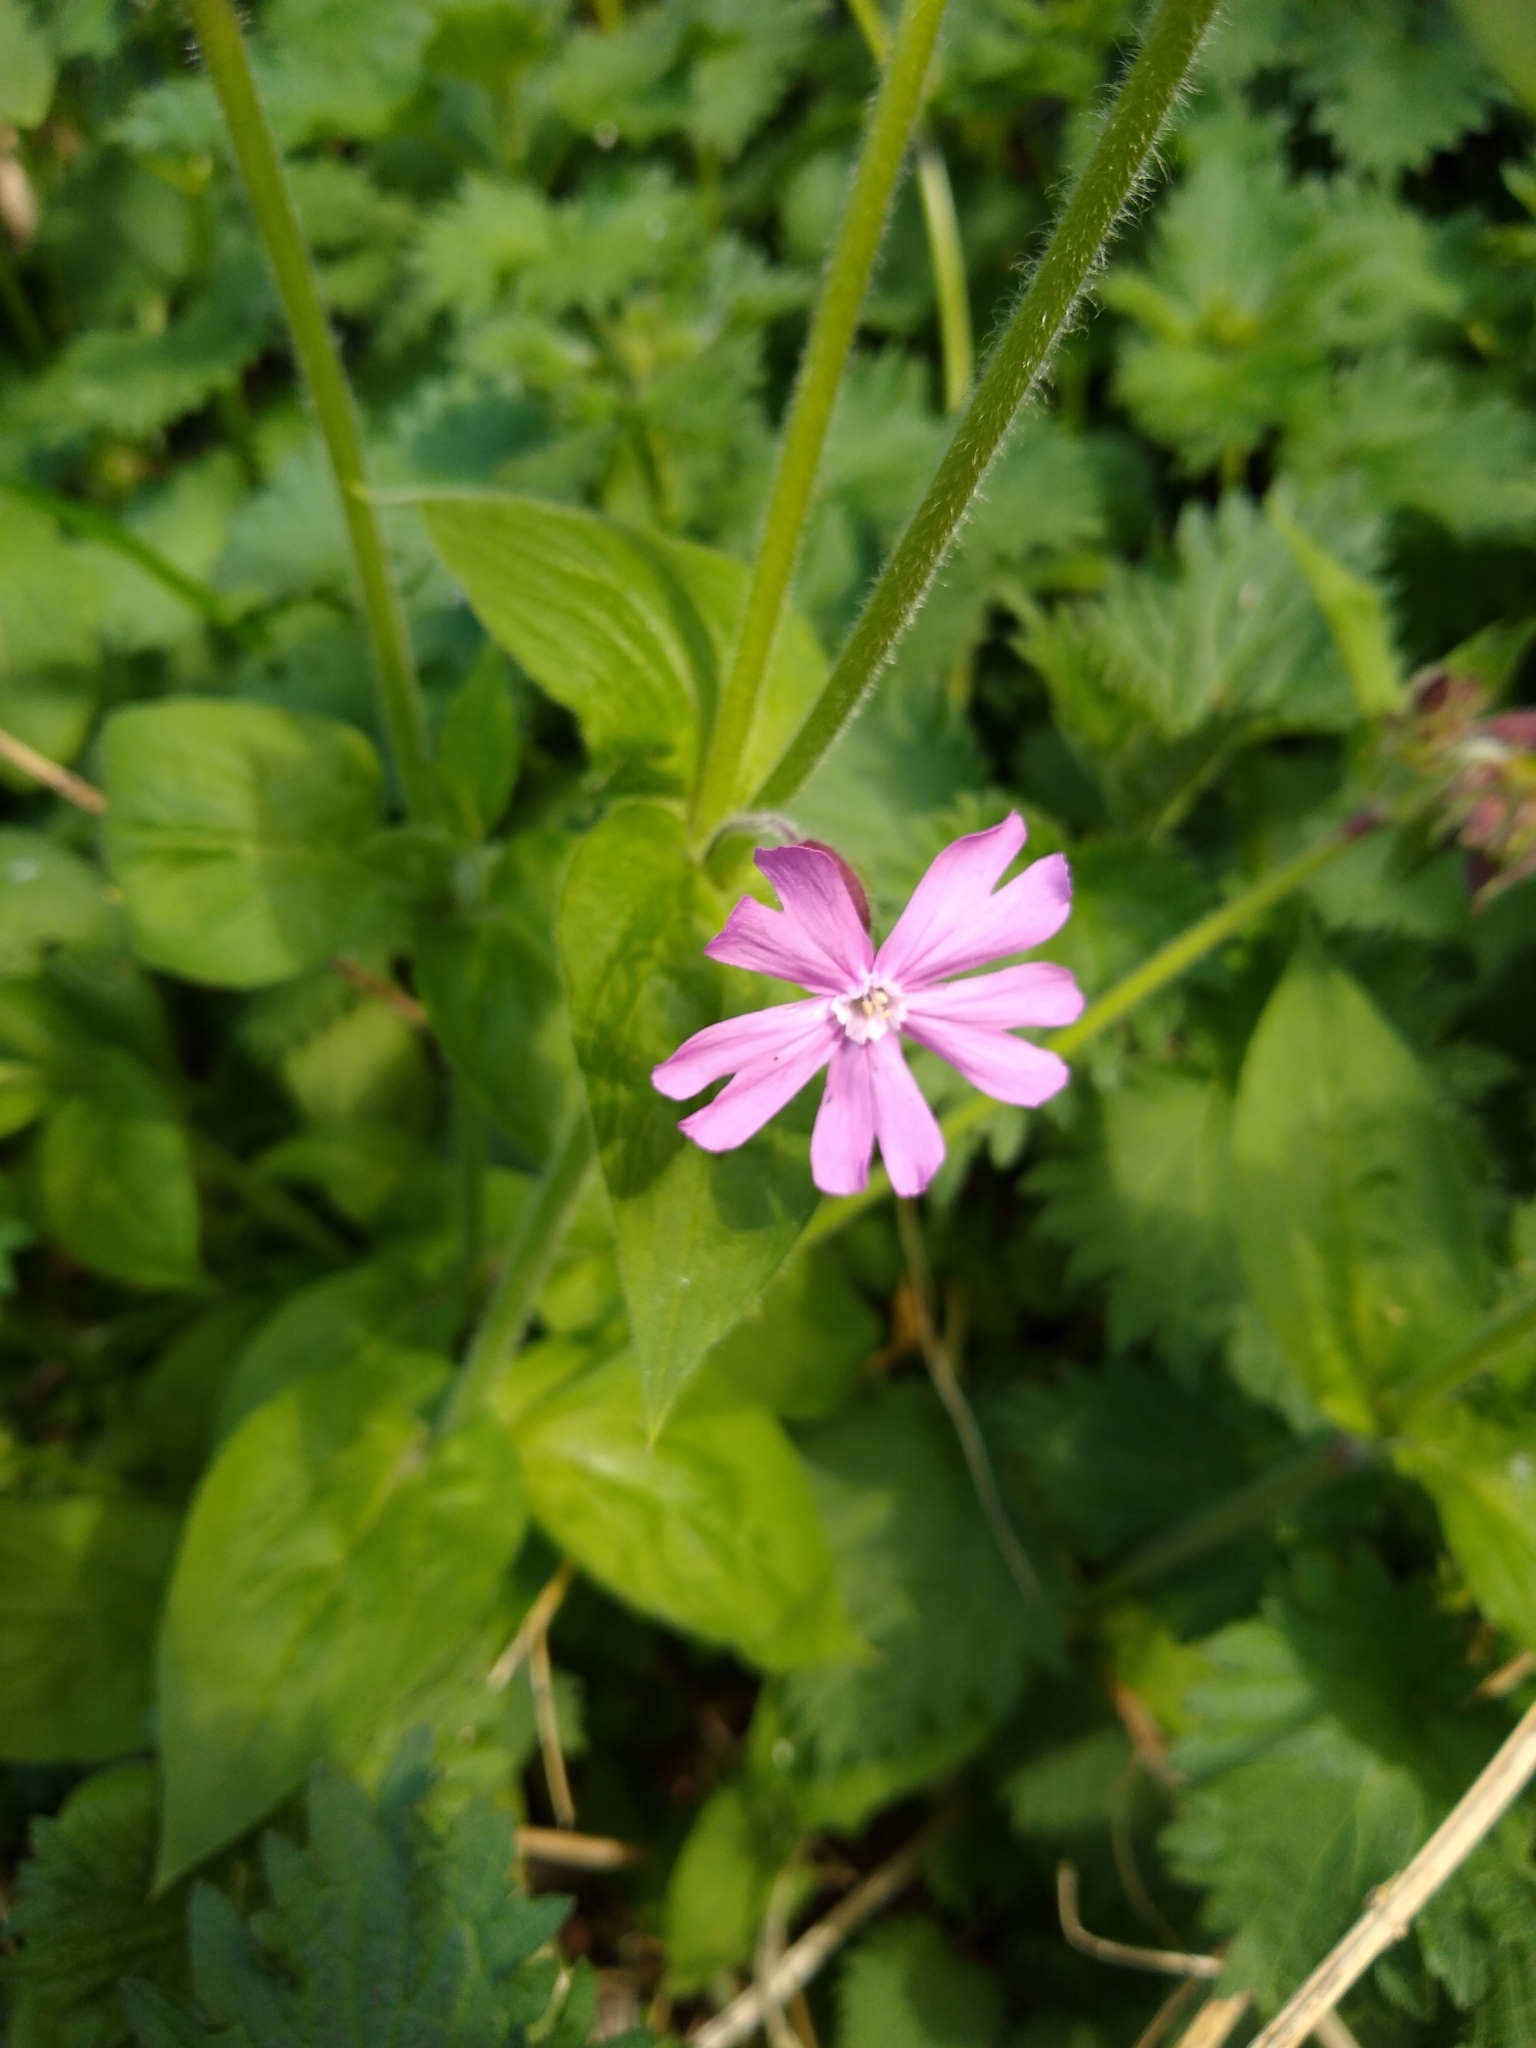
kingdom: Plantae
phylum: Tracheophyta
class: Magnoliopsida
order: Caryophyllales
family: Caryophyllaceae
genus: Silene
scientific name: Silene dioica
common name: Red campion
